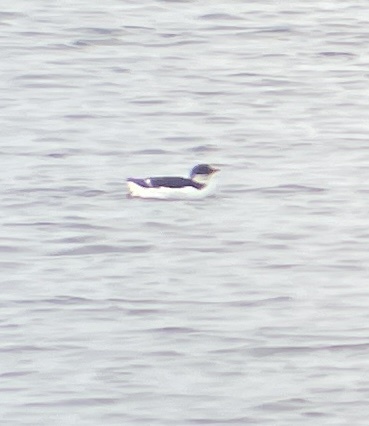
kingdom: Animalia
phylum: Chordata
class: Aves
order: Charadriiformes
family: Alcidae
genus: Uria
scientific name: Uria lomvia
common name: Thick-billed murre
